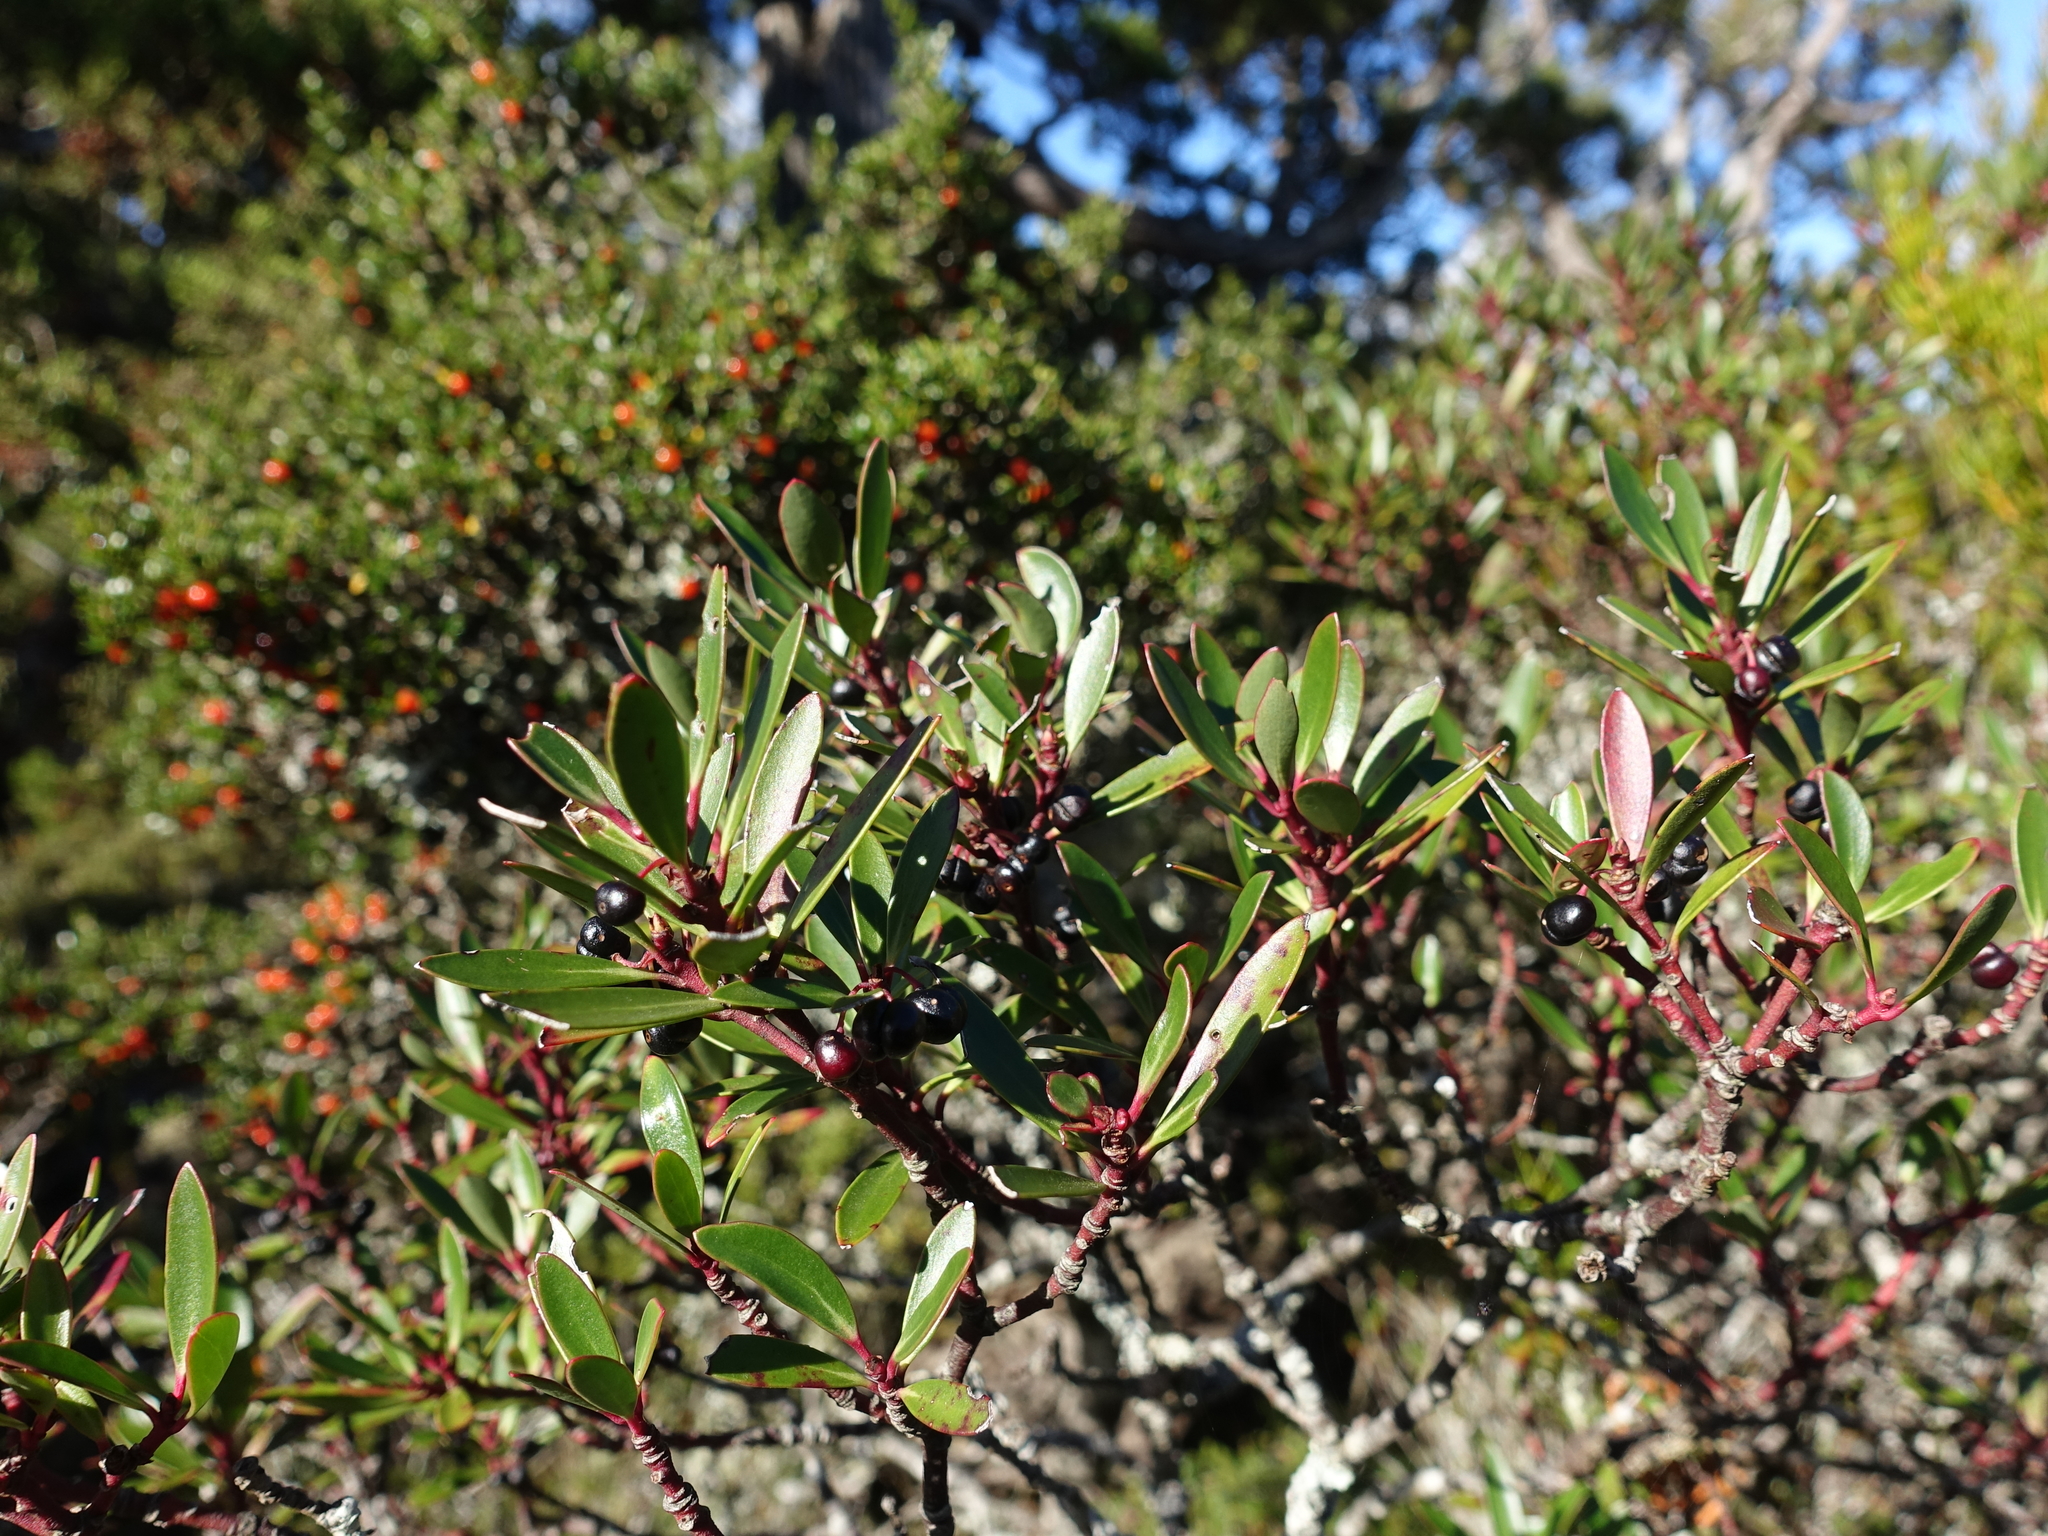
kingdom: Plantae
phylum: Tracheophyta
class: Magnoliopsida
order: Canellales
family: Winteraceae
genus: Drimys
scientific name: Drimys aromatica
